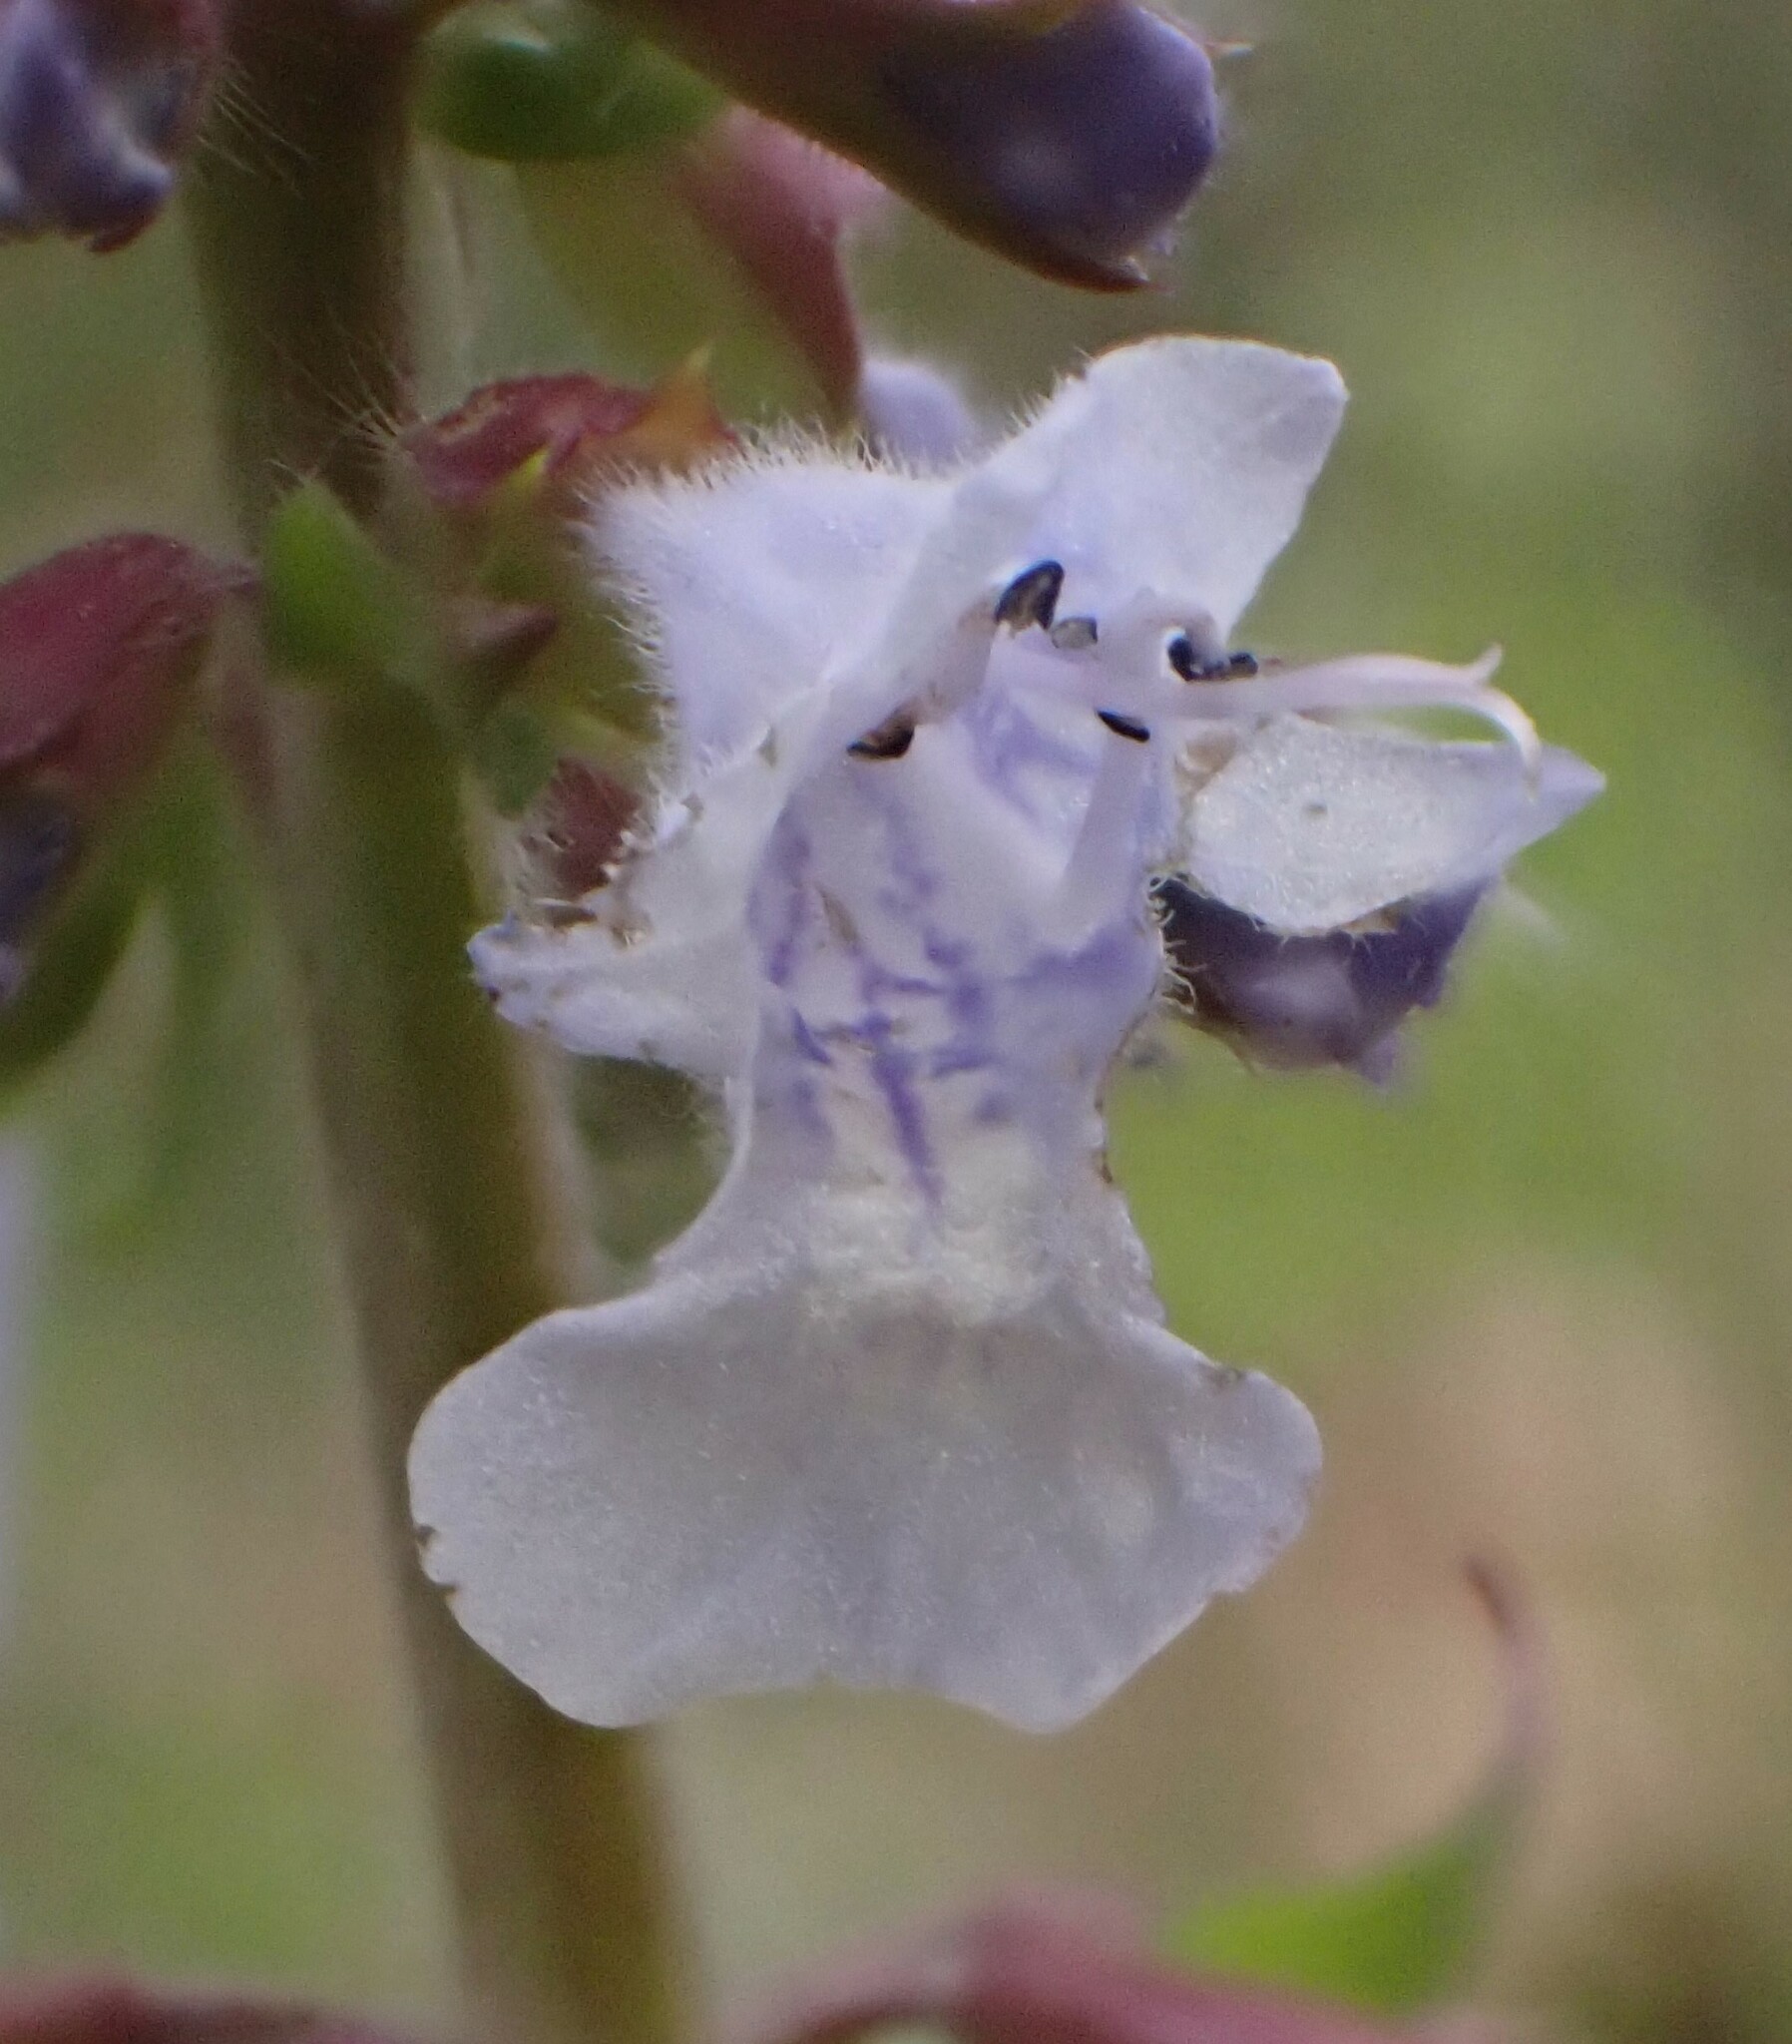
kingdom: Plantae
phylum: Tracheophyta
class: Magnoliopsida
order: Lamiales
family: Lamiaceae
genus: Salvia
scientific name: Salvia lyrata
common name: Cancerweed
